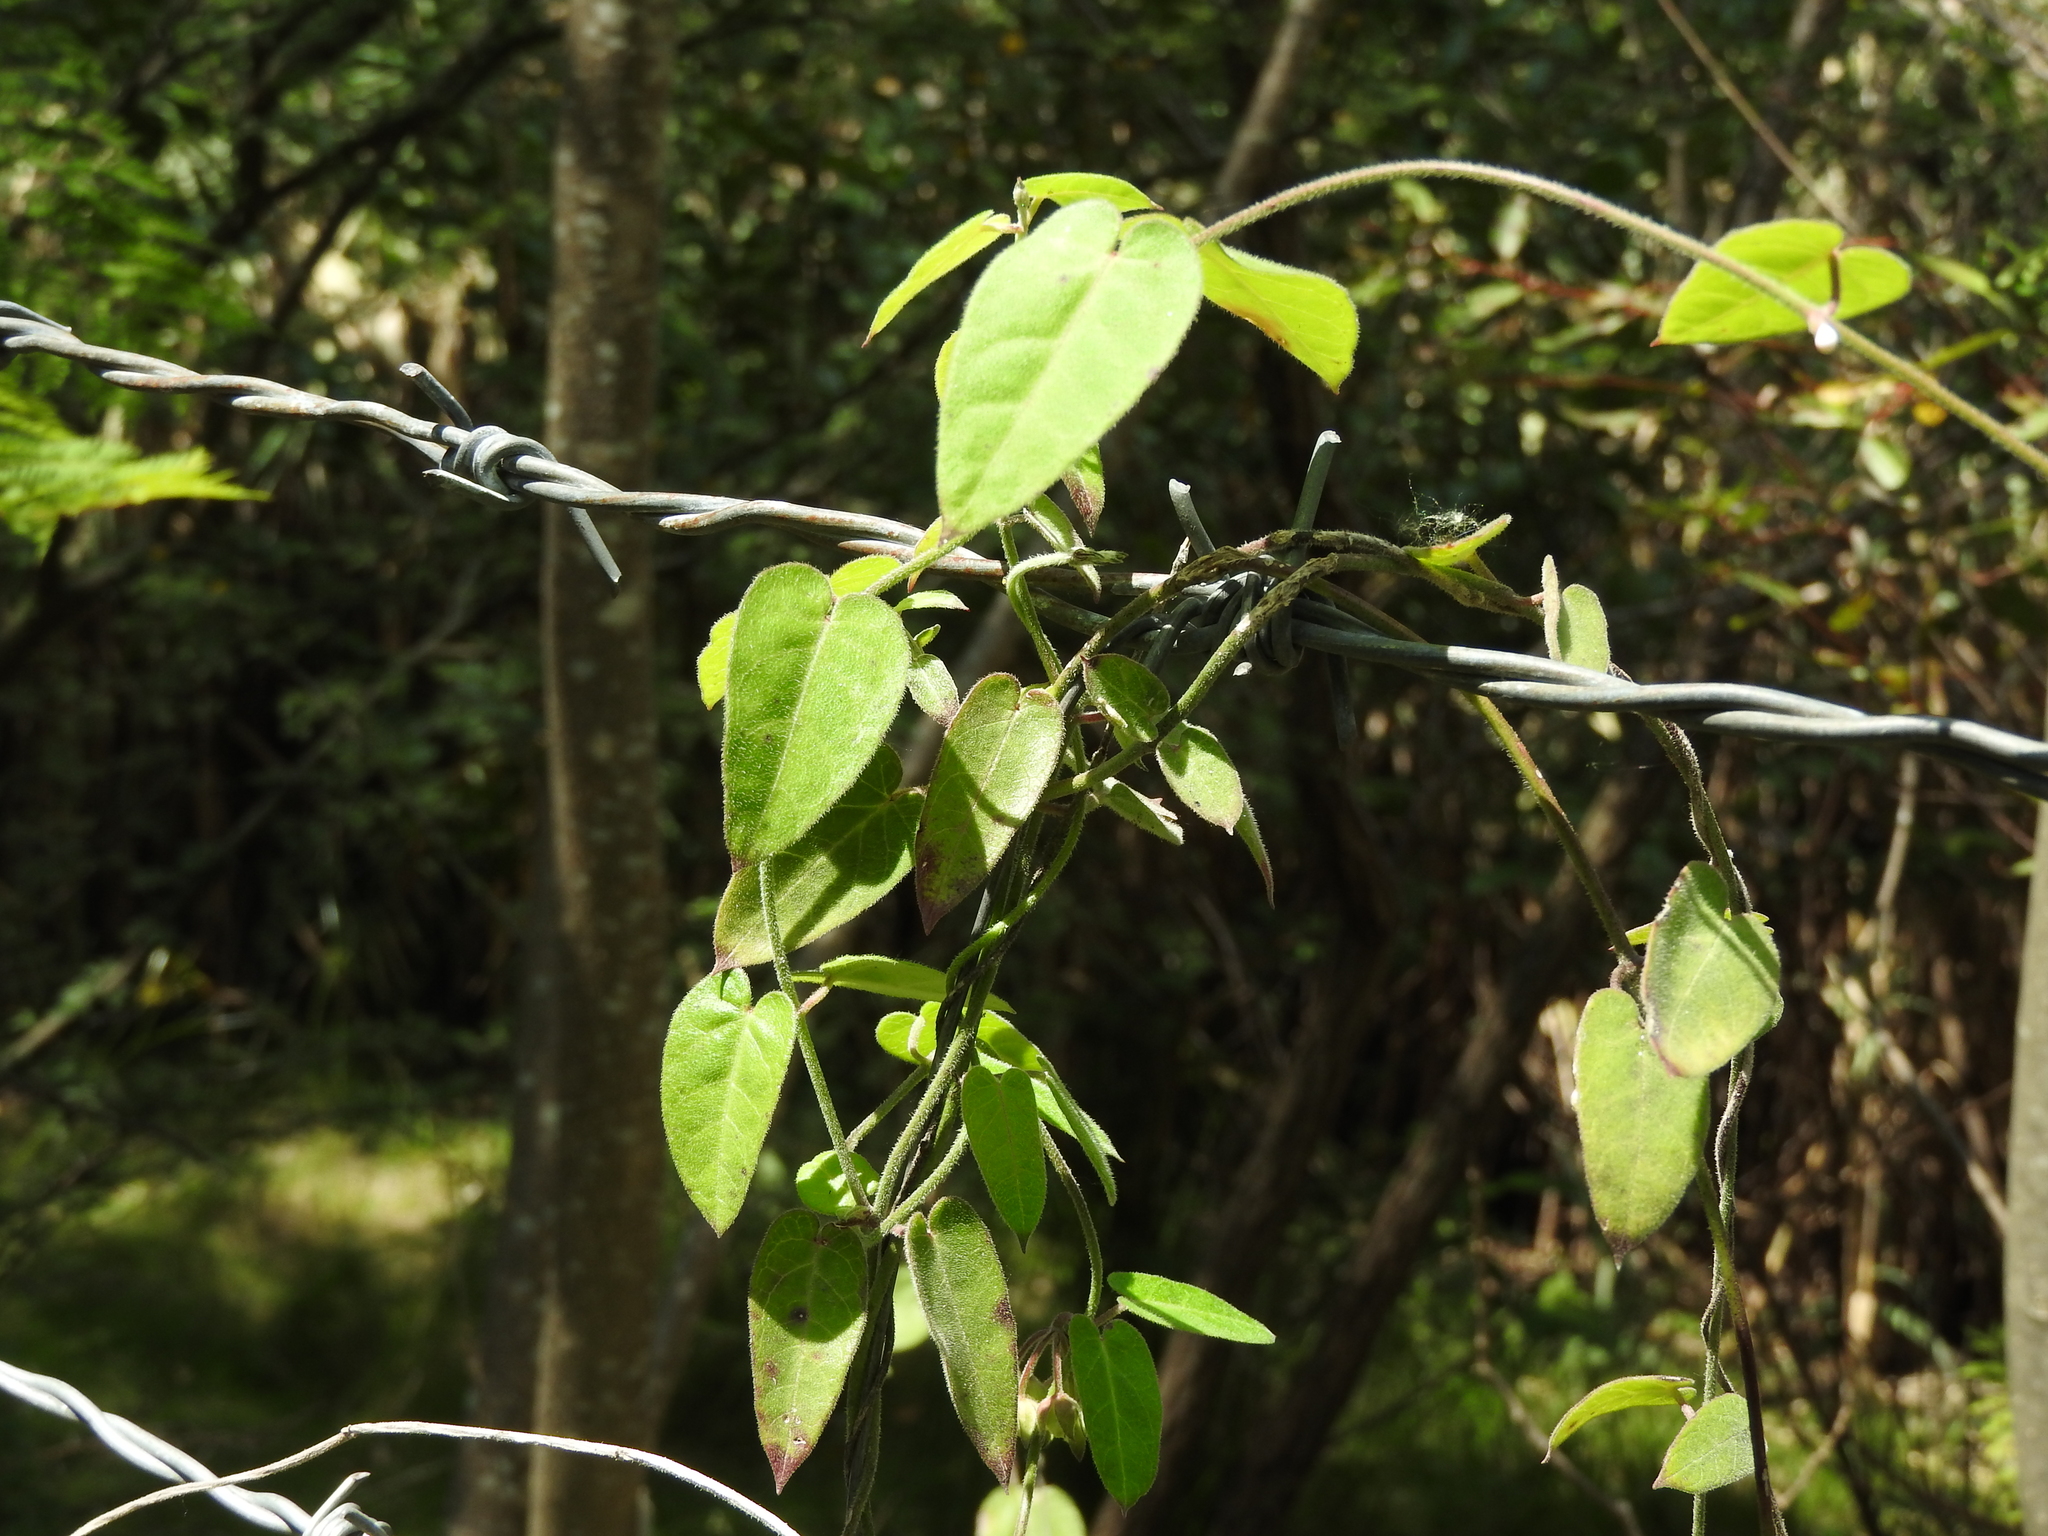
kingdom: Plantae
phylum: Tracheophyta
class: Magnoliopsida
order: Gentianales
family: Apocynaceae
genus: Funastrum
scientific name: Funastrum elegans
